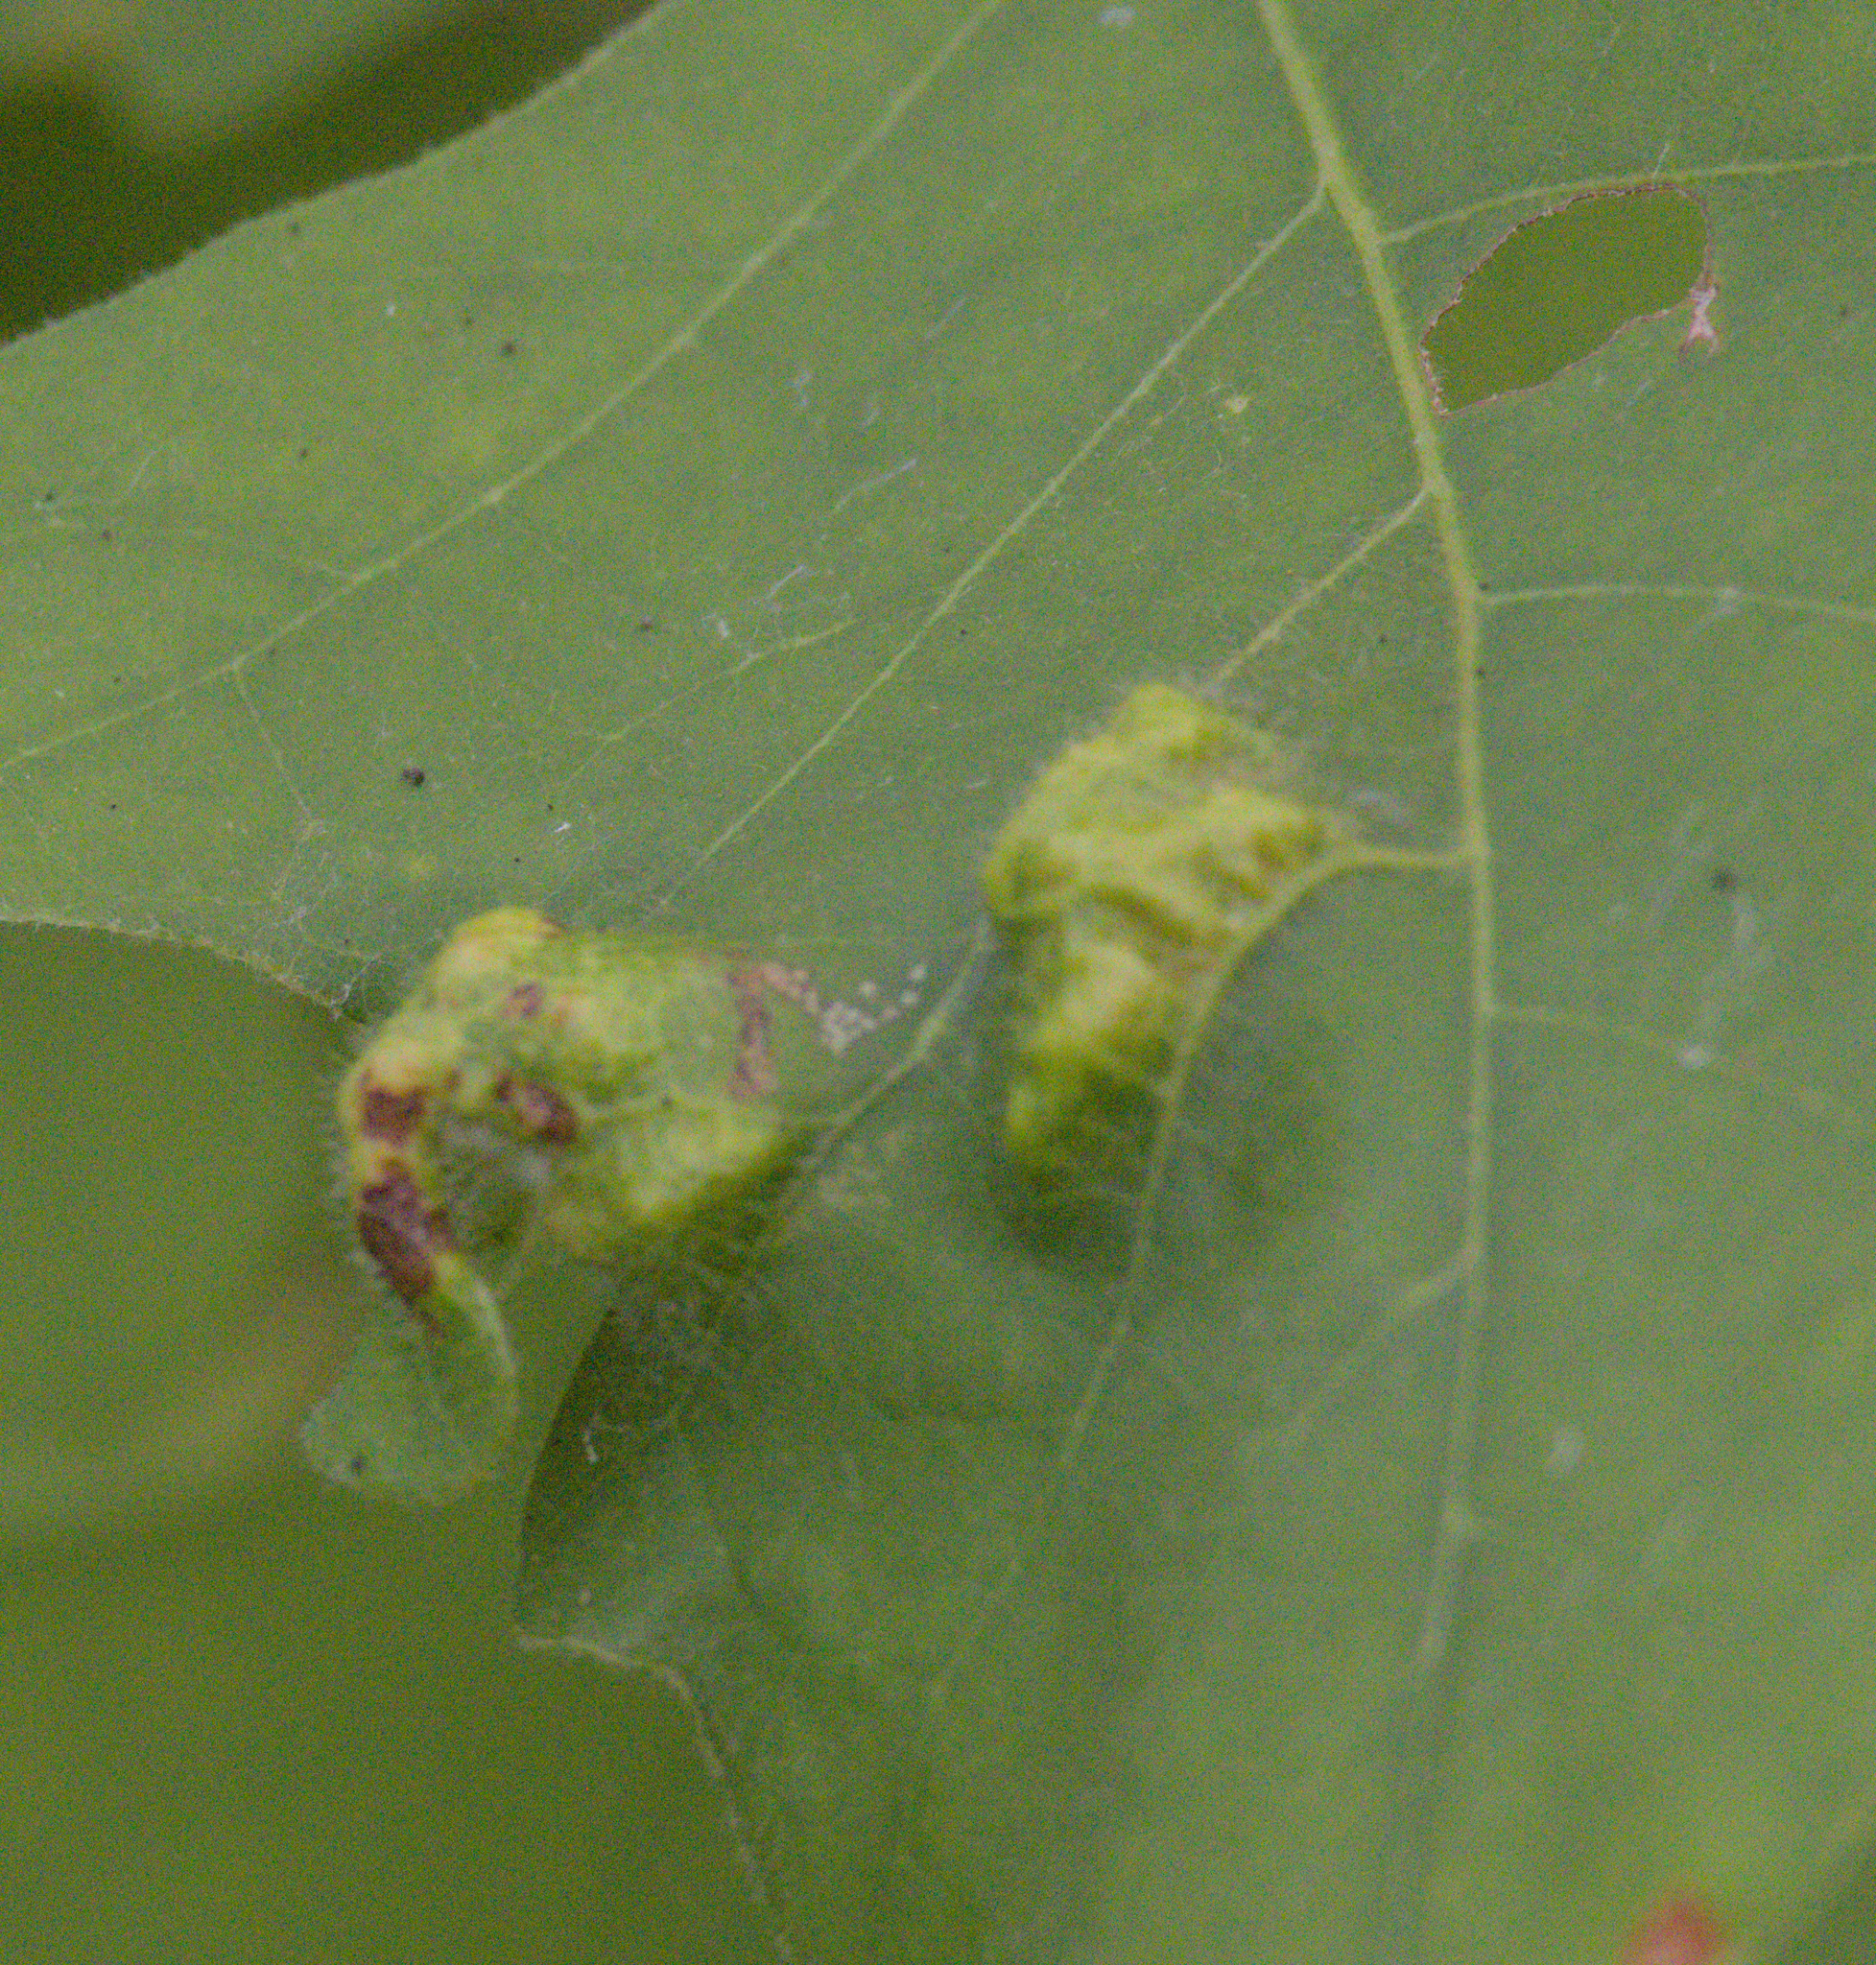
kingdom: Animalia
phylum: Arthropoda
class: Arachnida
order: Trombidiformes
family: Eriophyidae
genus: Aceria
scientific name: Aceria quercina
